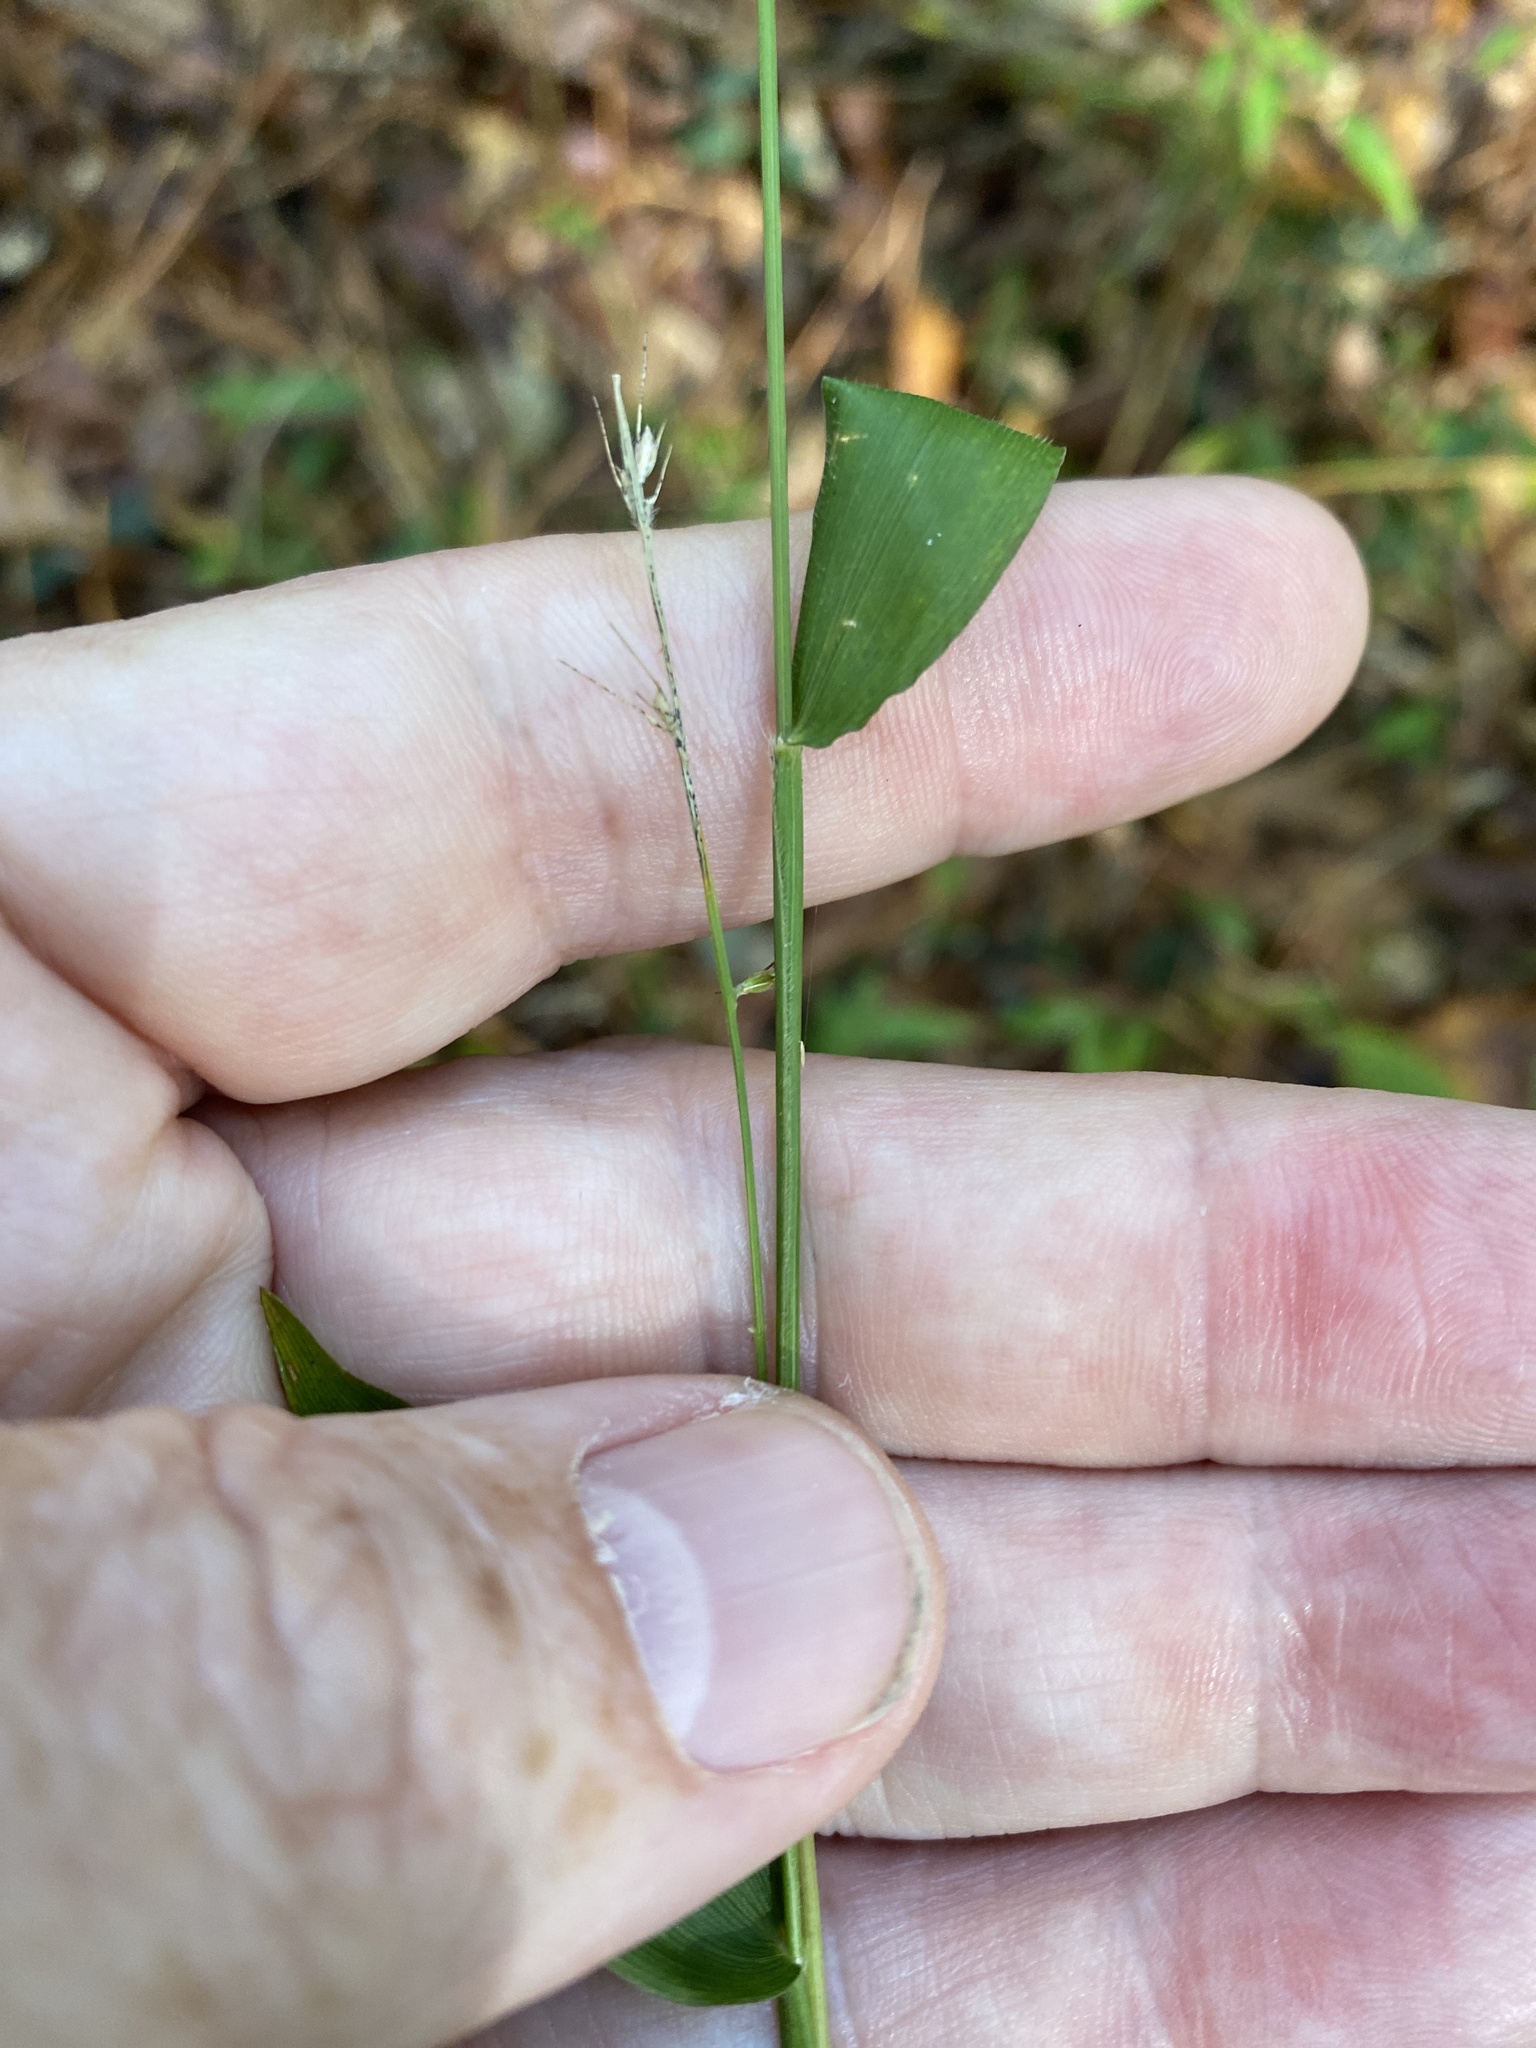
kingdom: Plantae
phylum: Tracheophyta
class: Liliopsida
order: Poales
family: Poaceae
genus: Oplismenus
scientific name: Oplismenus hirtellus
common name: Basketgrass
